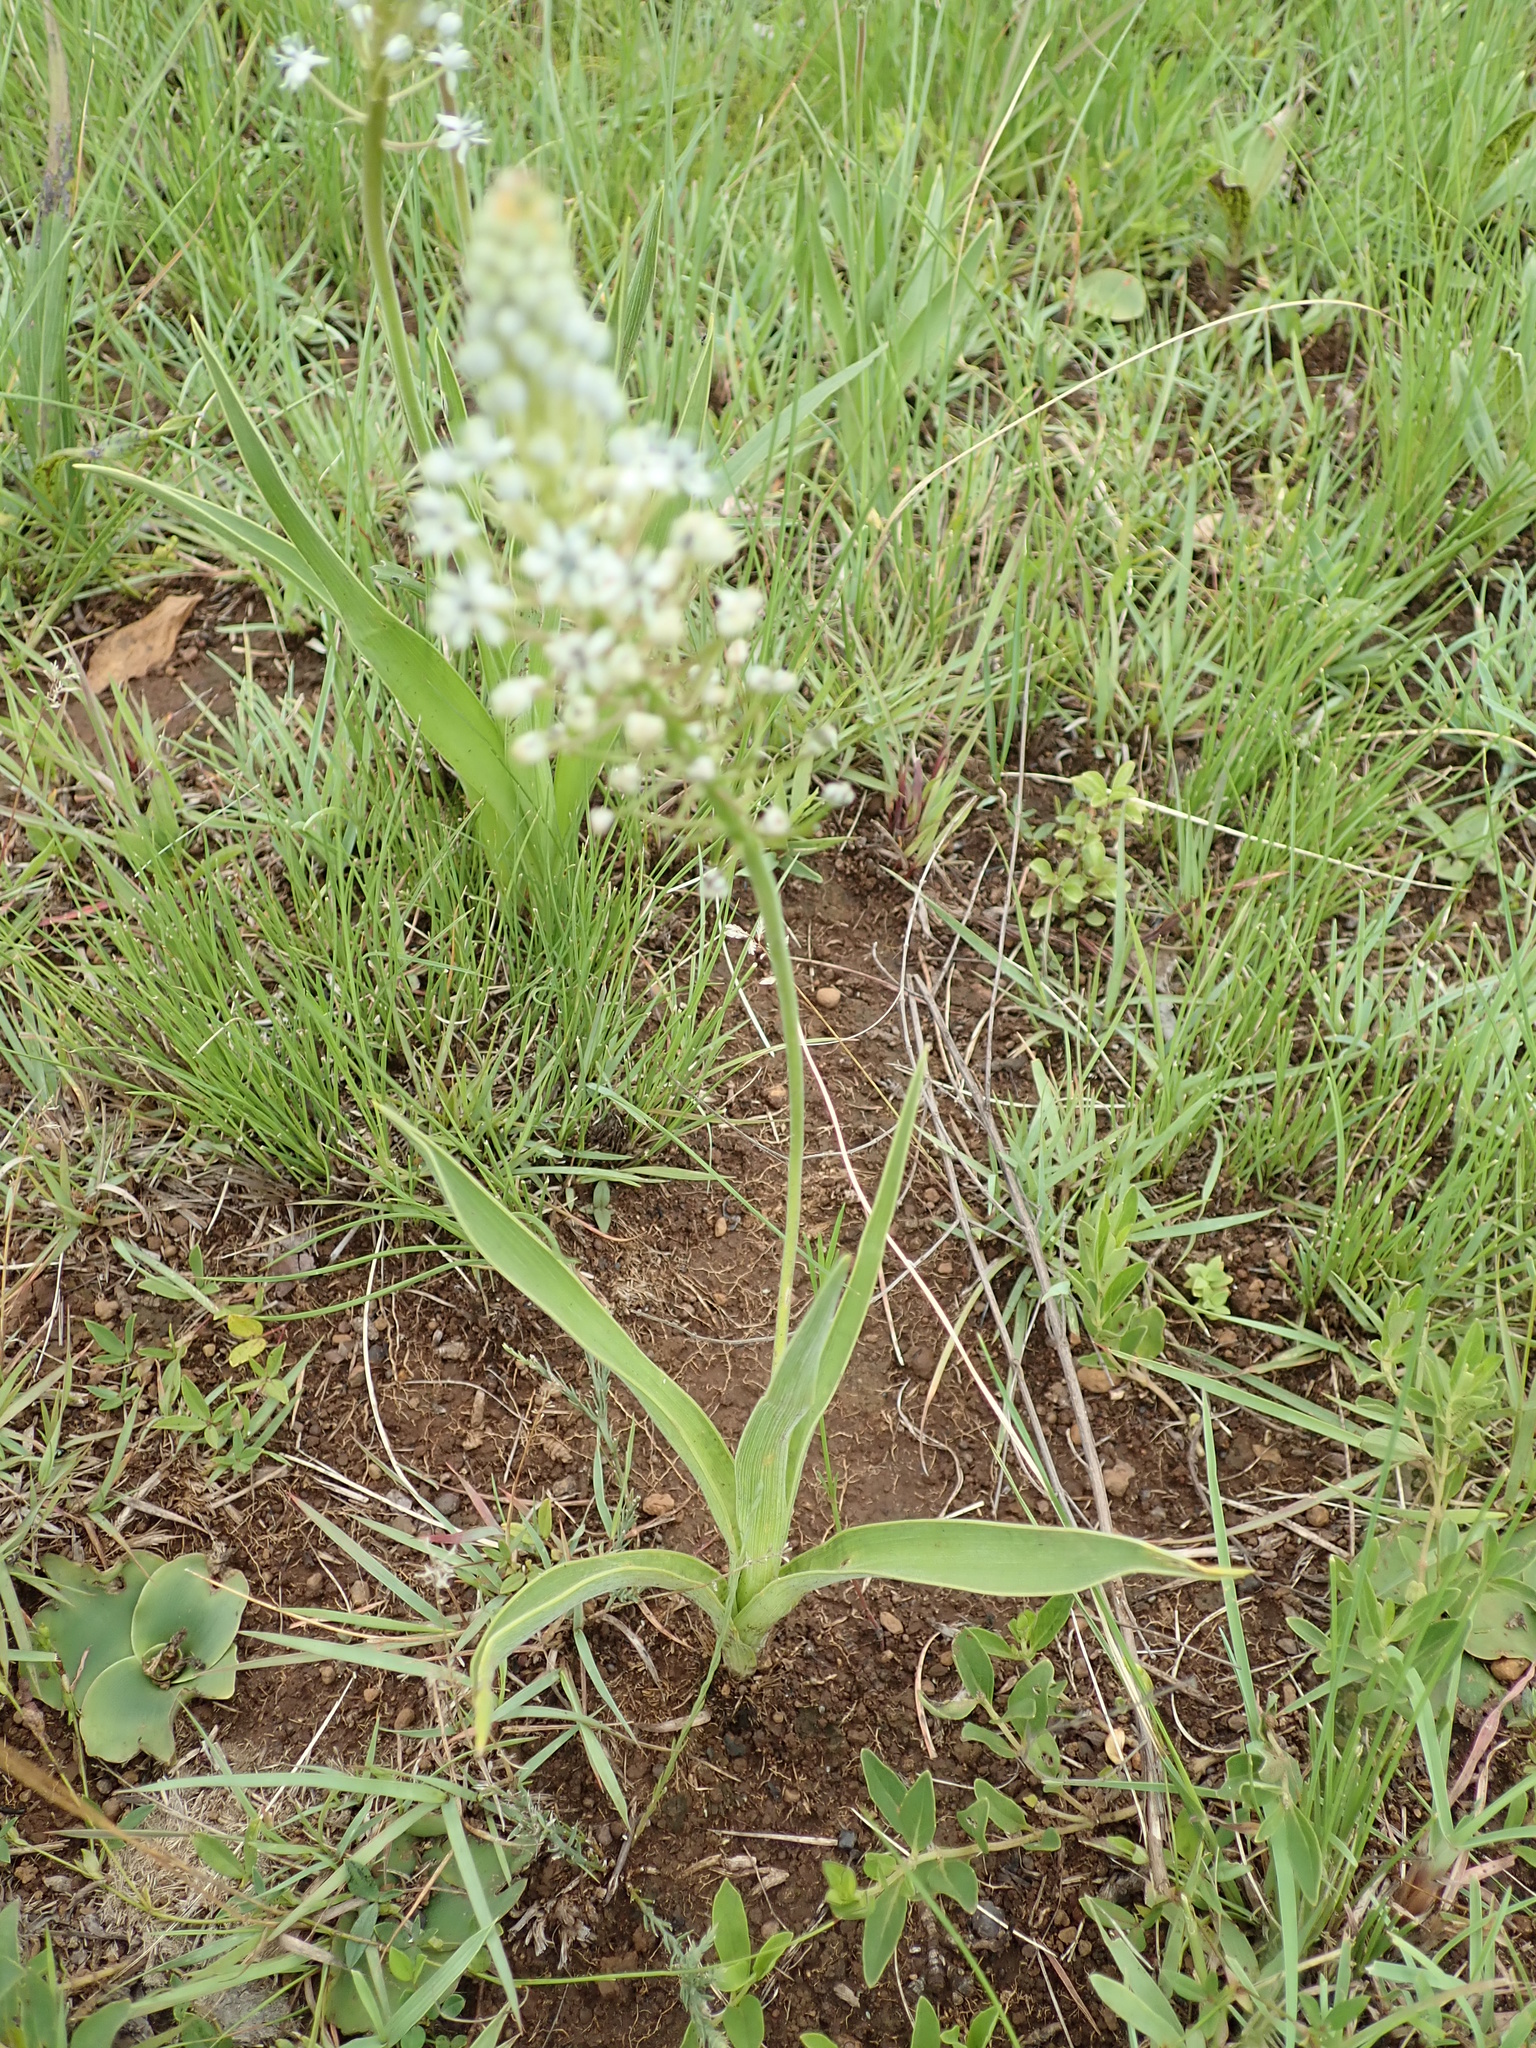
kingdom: Plantae
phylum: Tracheophyta
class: Liliopsida
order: Asparagales
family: Asparagaceae
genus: Schizocarphus
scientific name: Schizocarphus nervosus
